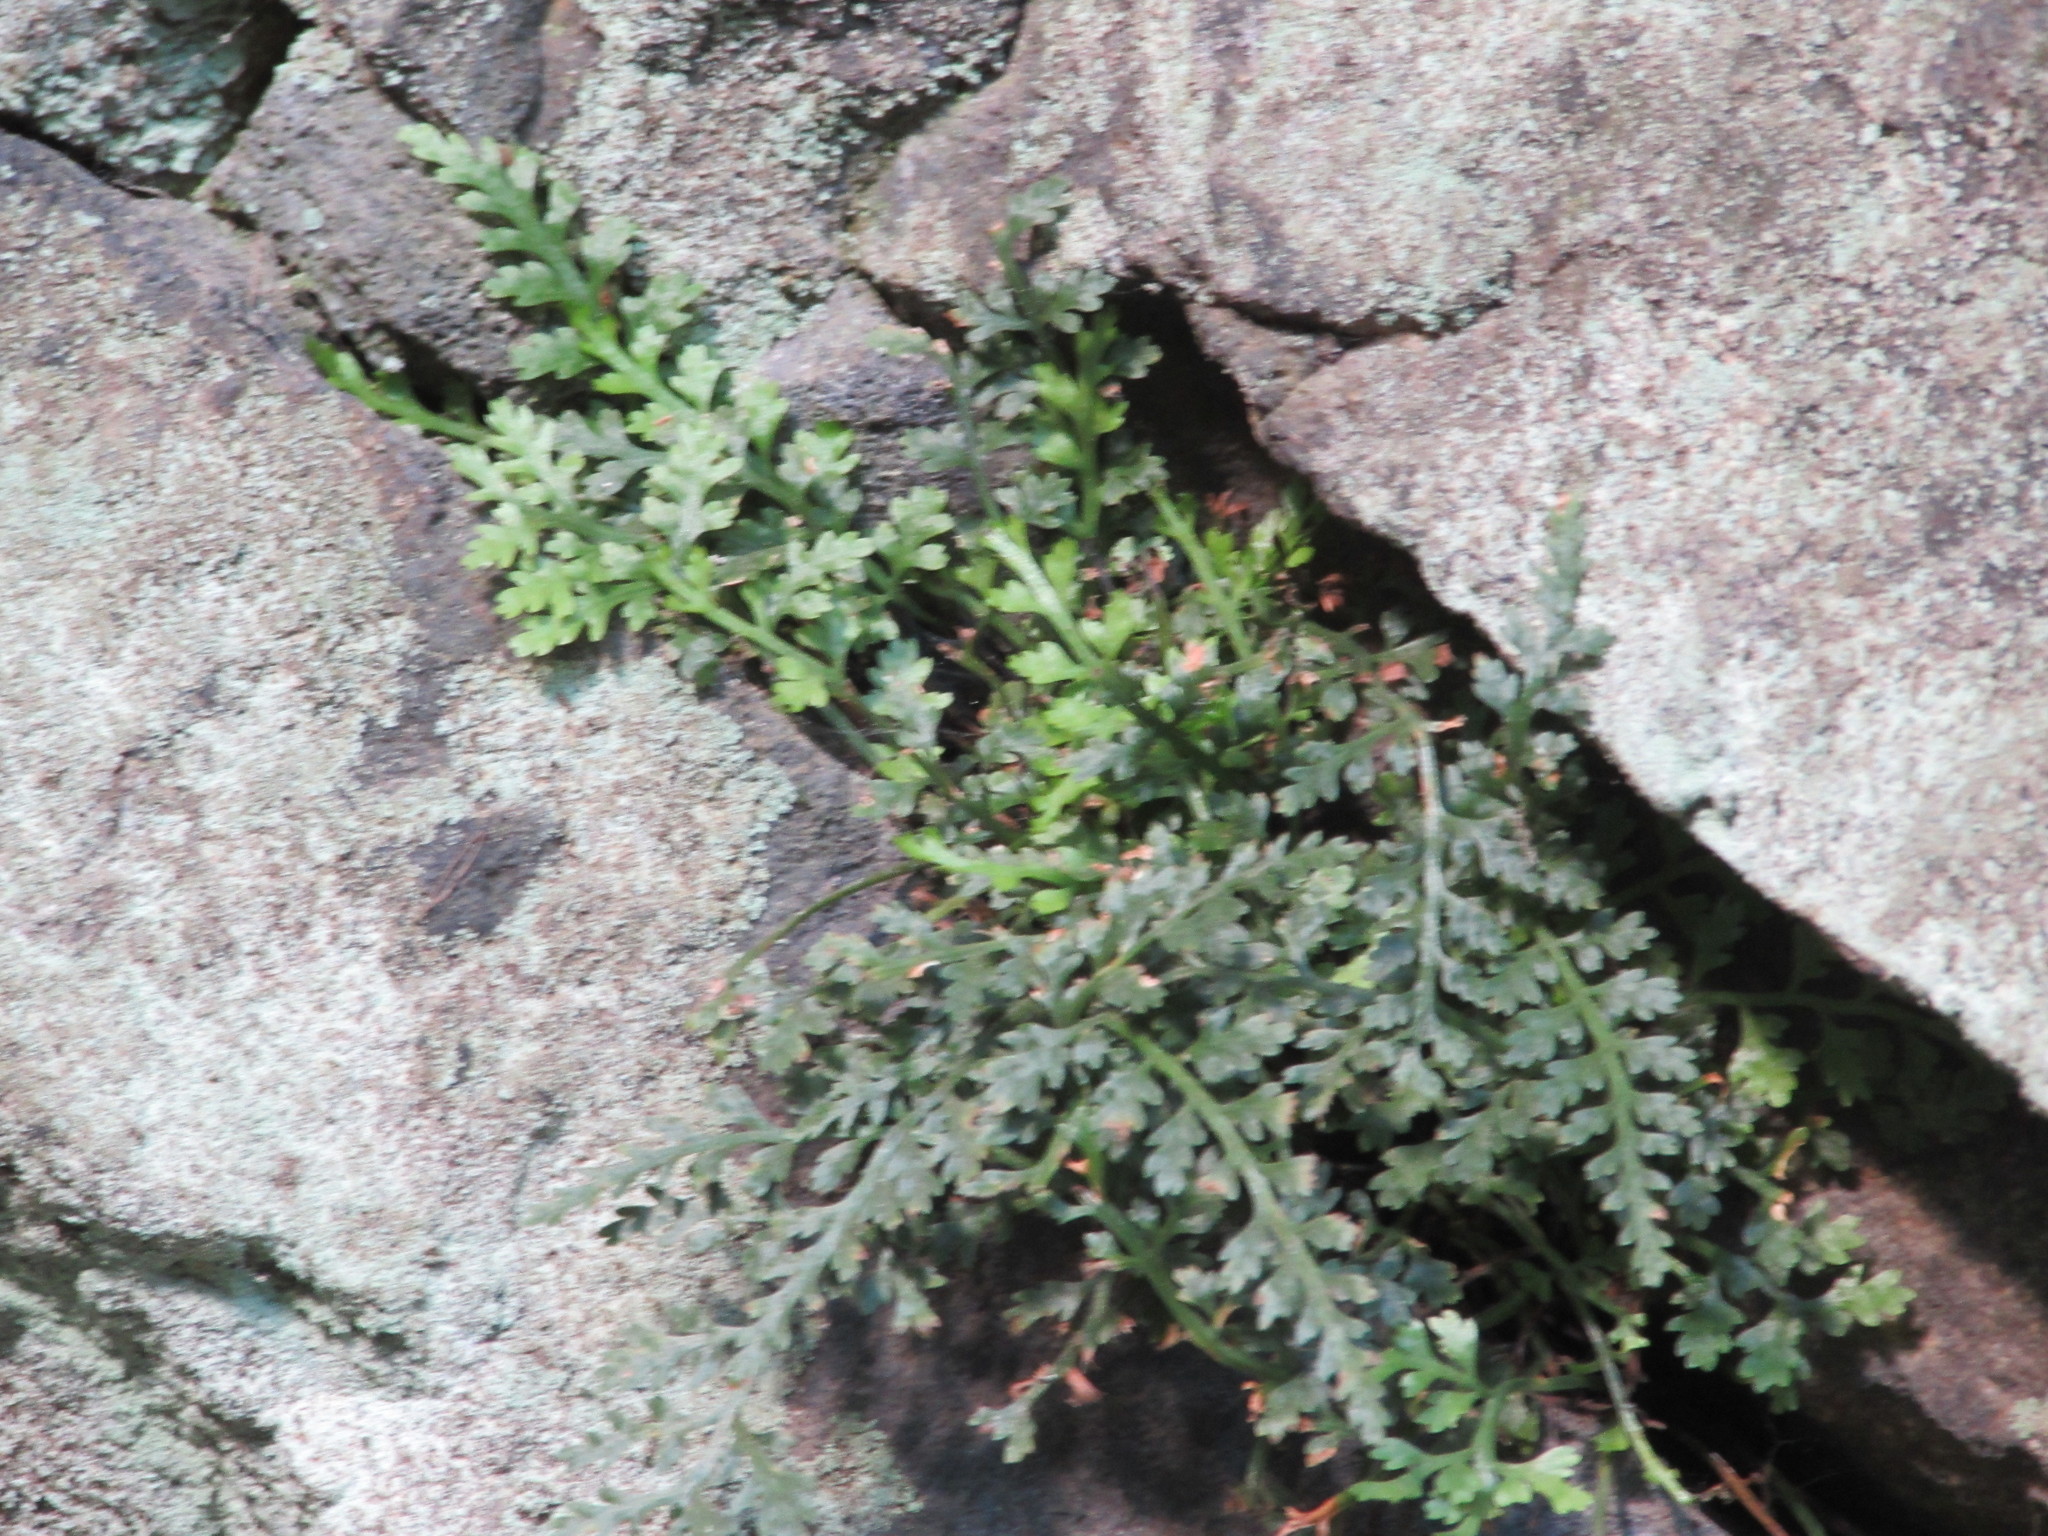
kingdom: Plantae
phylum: Tracheophyta
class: Polypodiopsida
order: Polypodiales
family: Aspleniaceae
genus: Asplenium
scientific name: Asplenium montanum
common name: Mountain spleenwort
